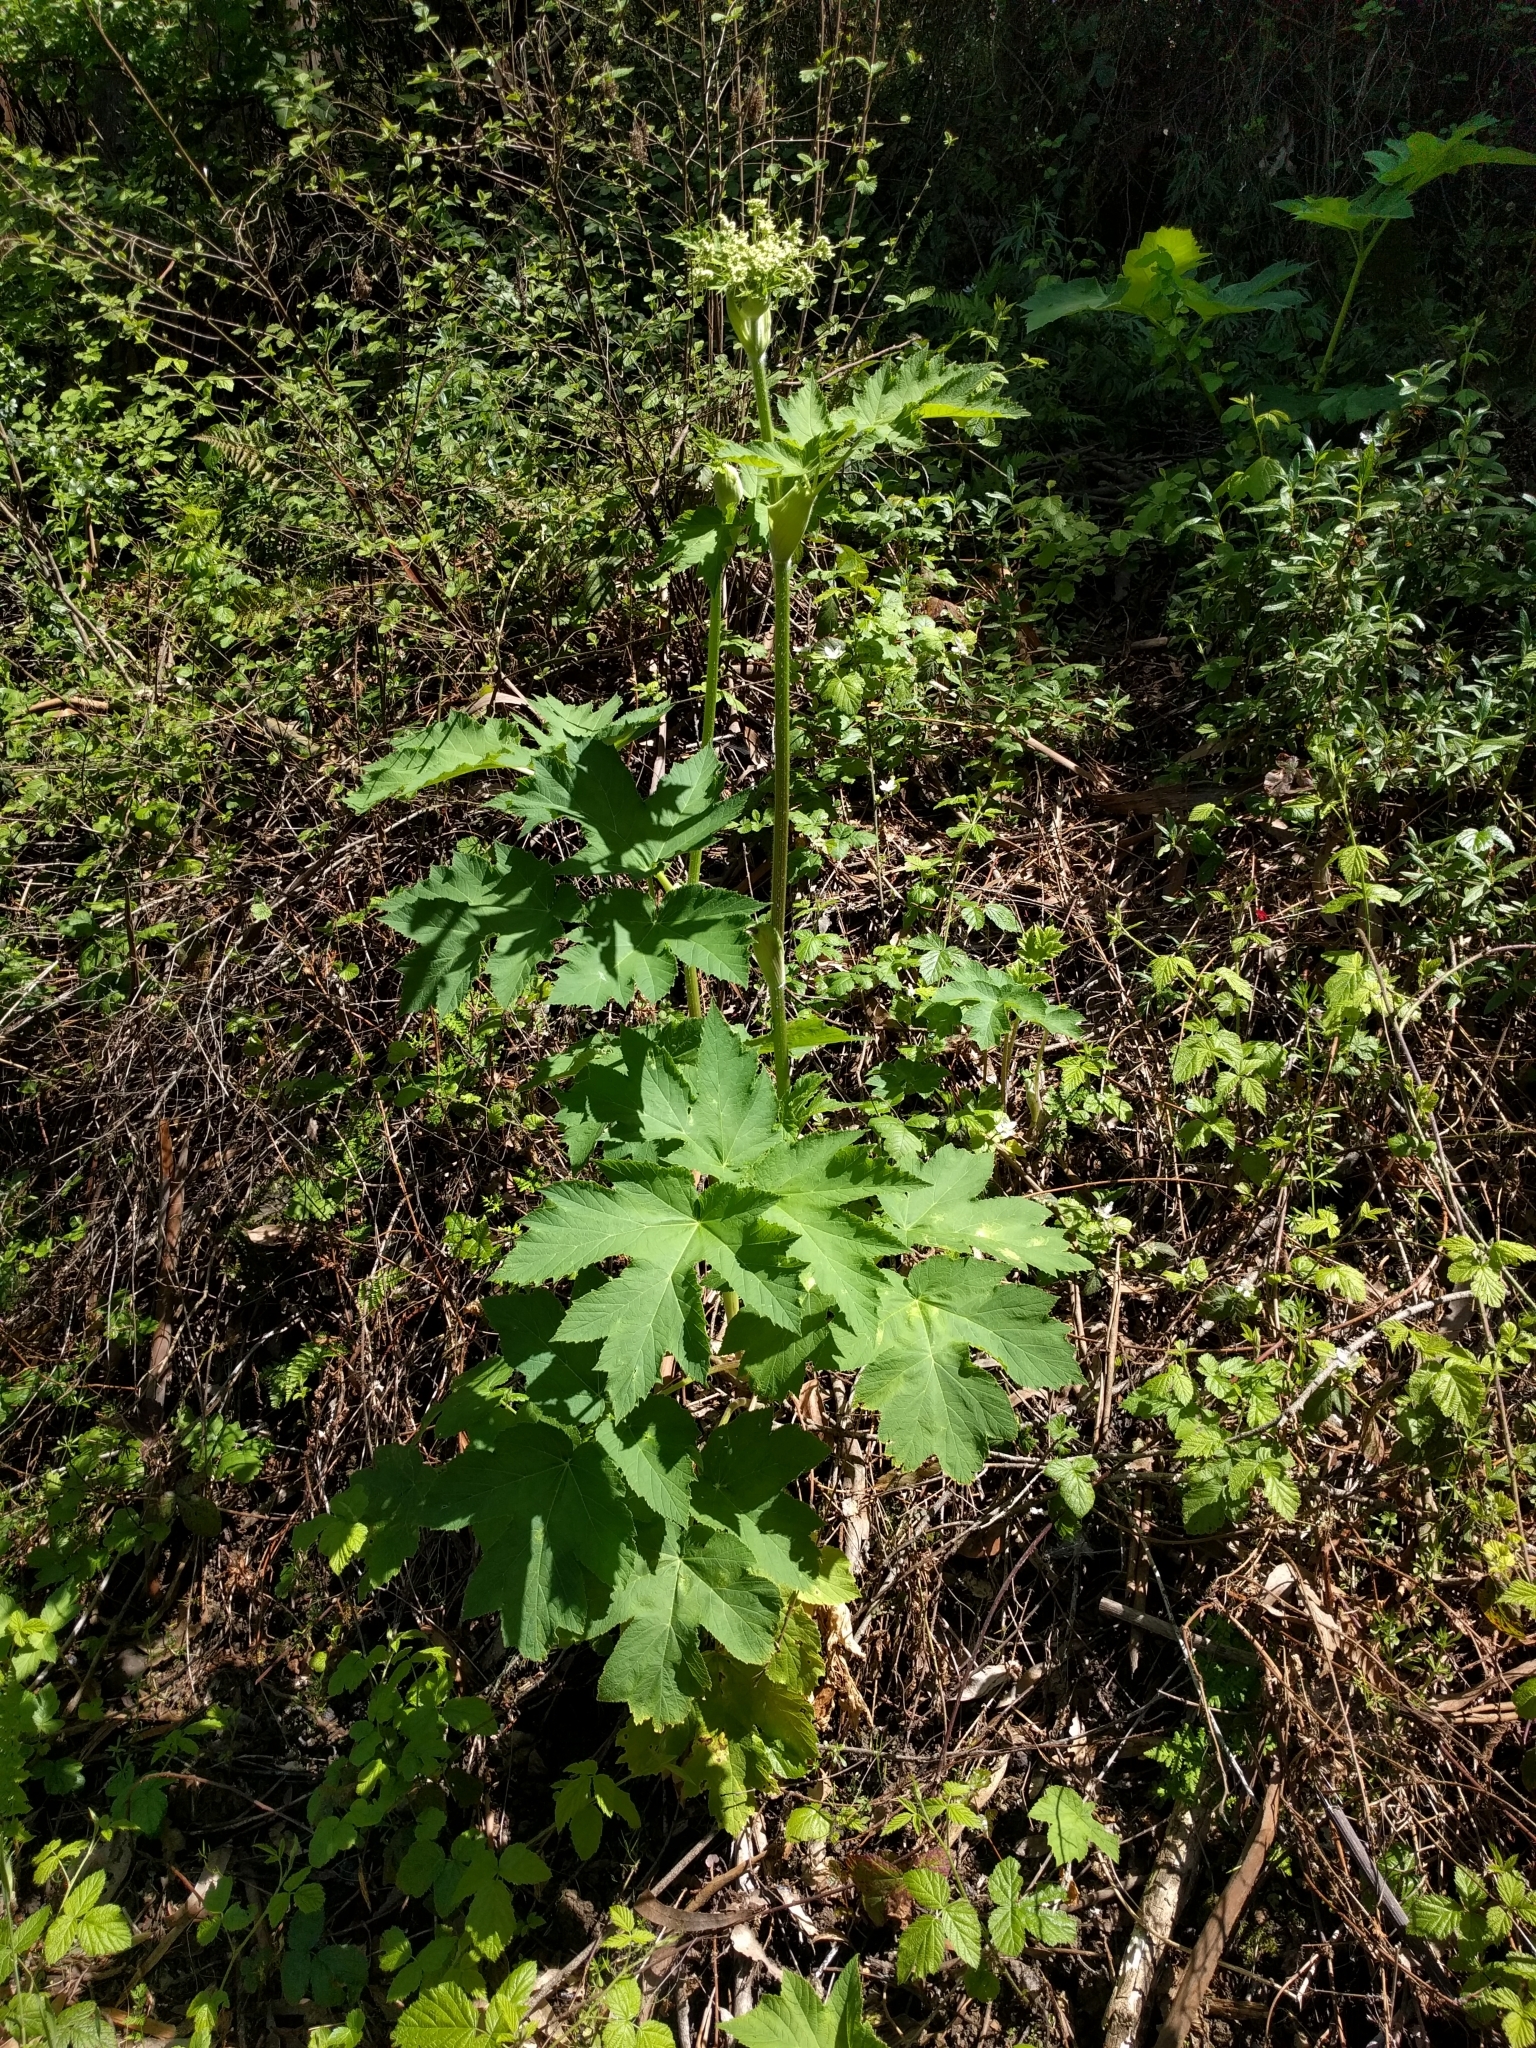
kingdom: Plantae
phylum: Tracheophyta
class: Magnoliopsida
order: Apiales
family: Apiaceae
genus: Heracleum
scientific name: Heracleum maximum
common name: American cow parsnip
